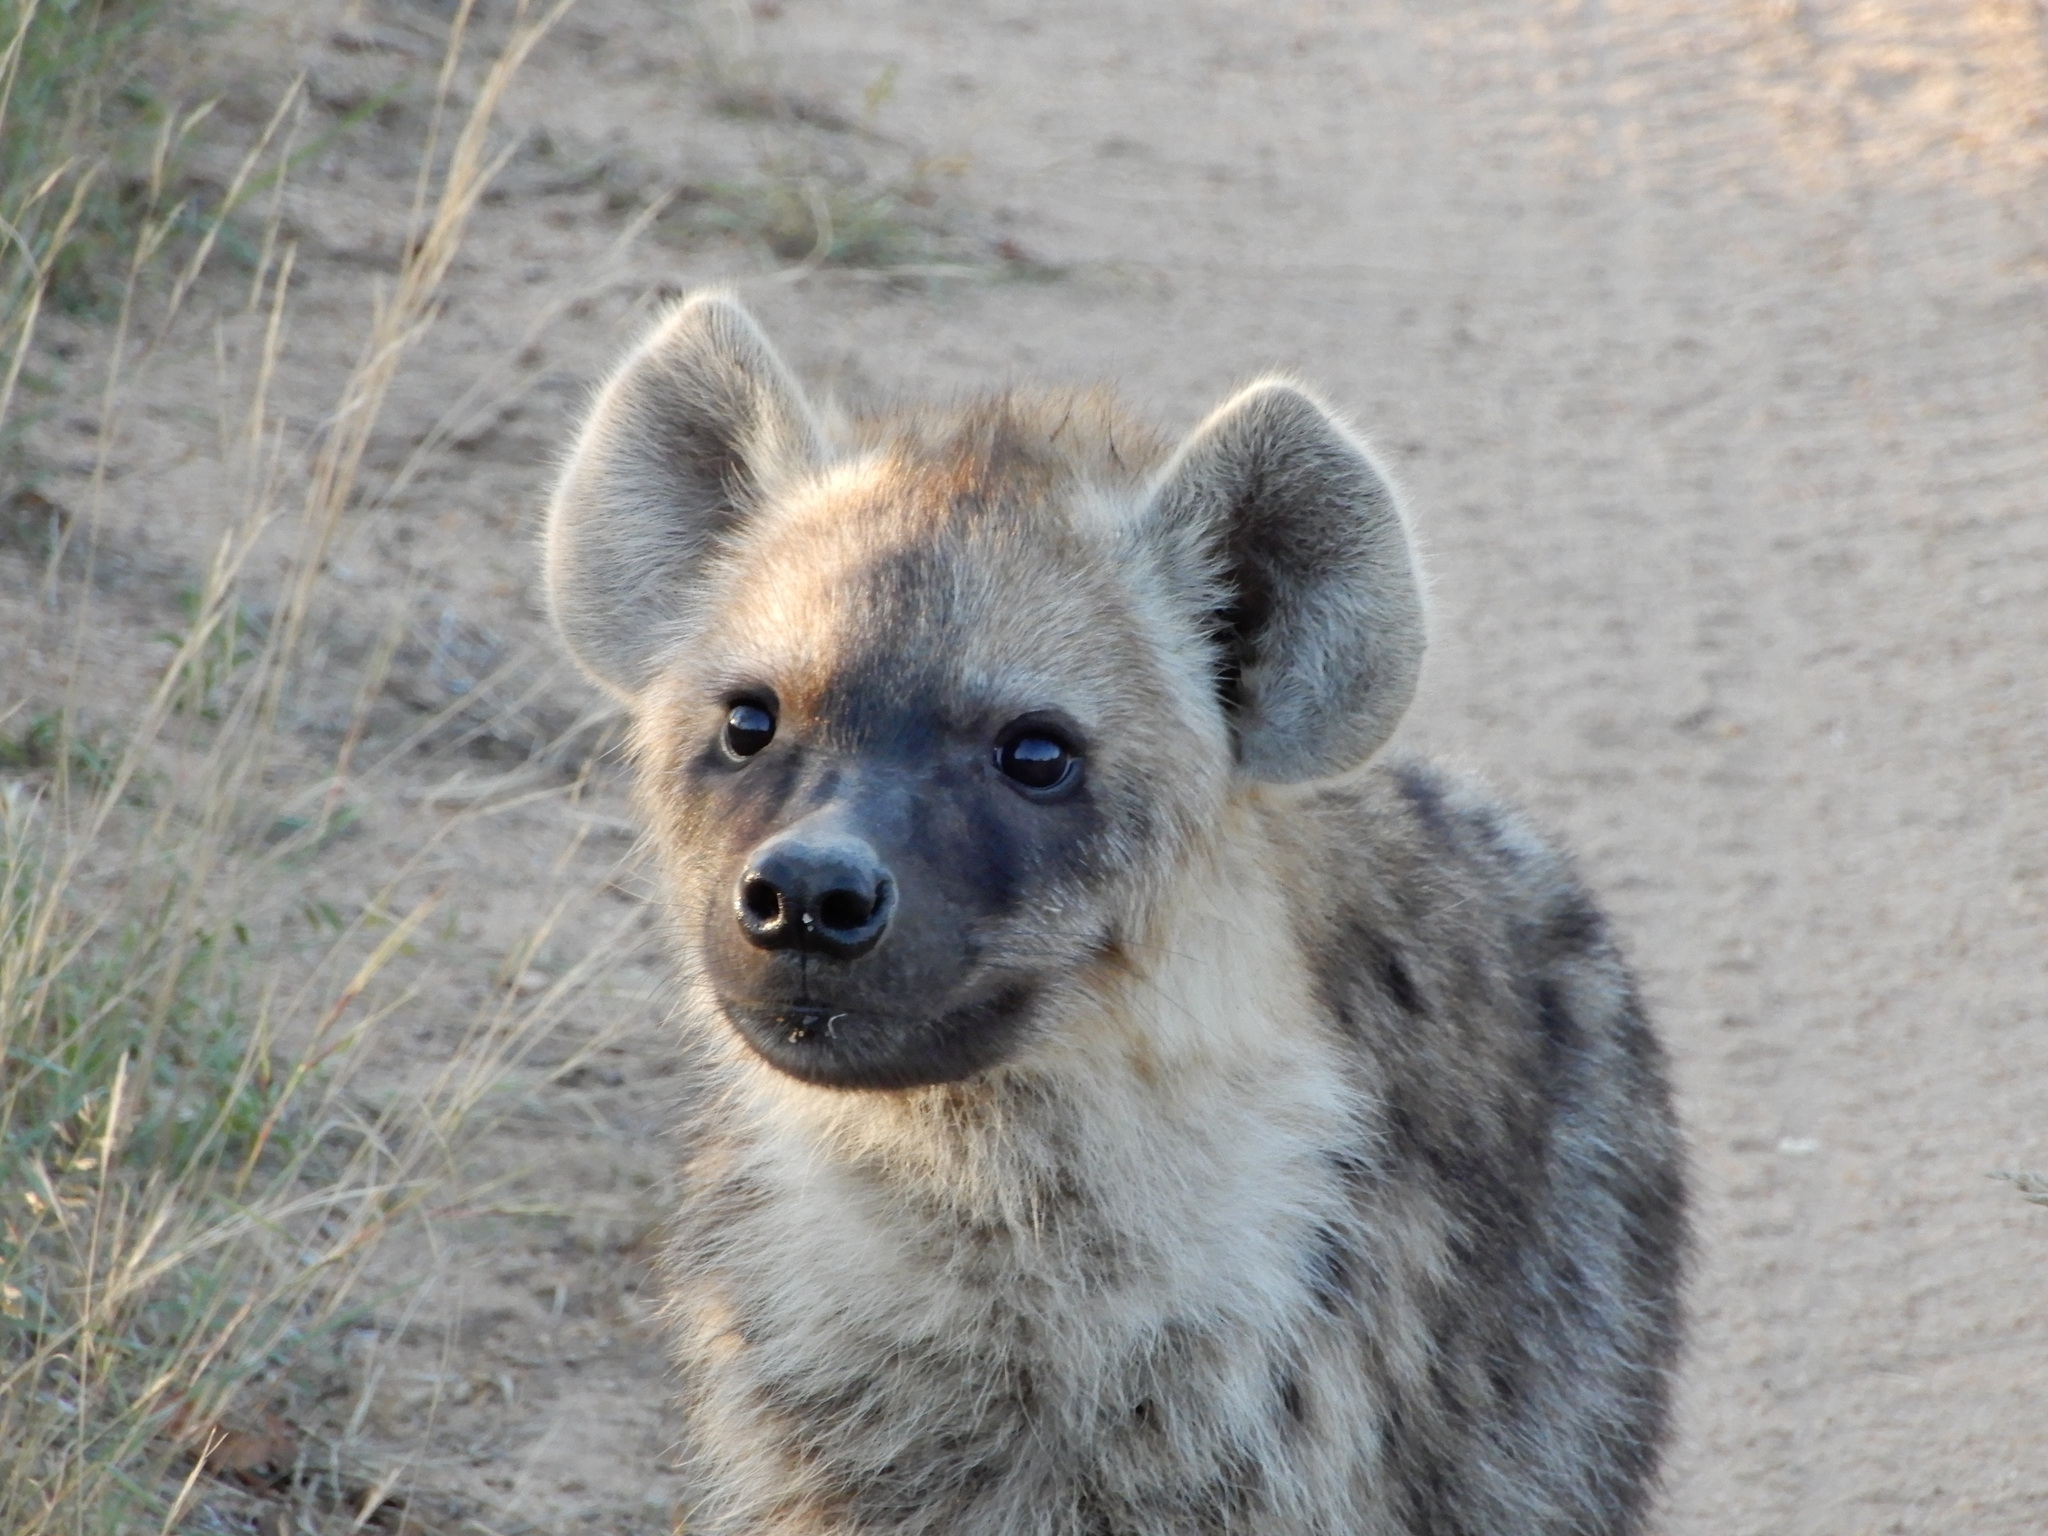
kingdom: Animalia
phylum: Chordata
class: Mammalia
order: Carnivora
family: Hyaenidae
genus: Crocuta
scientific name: Crocuta crocuta
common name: Spotted hyaena
